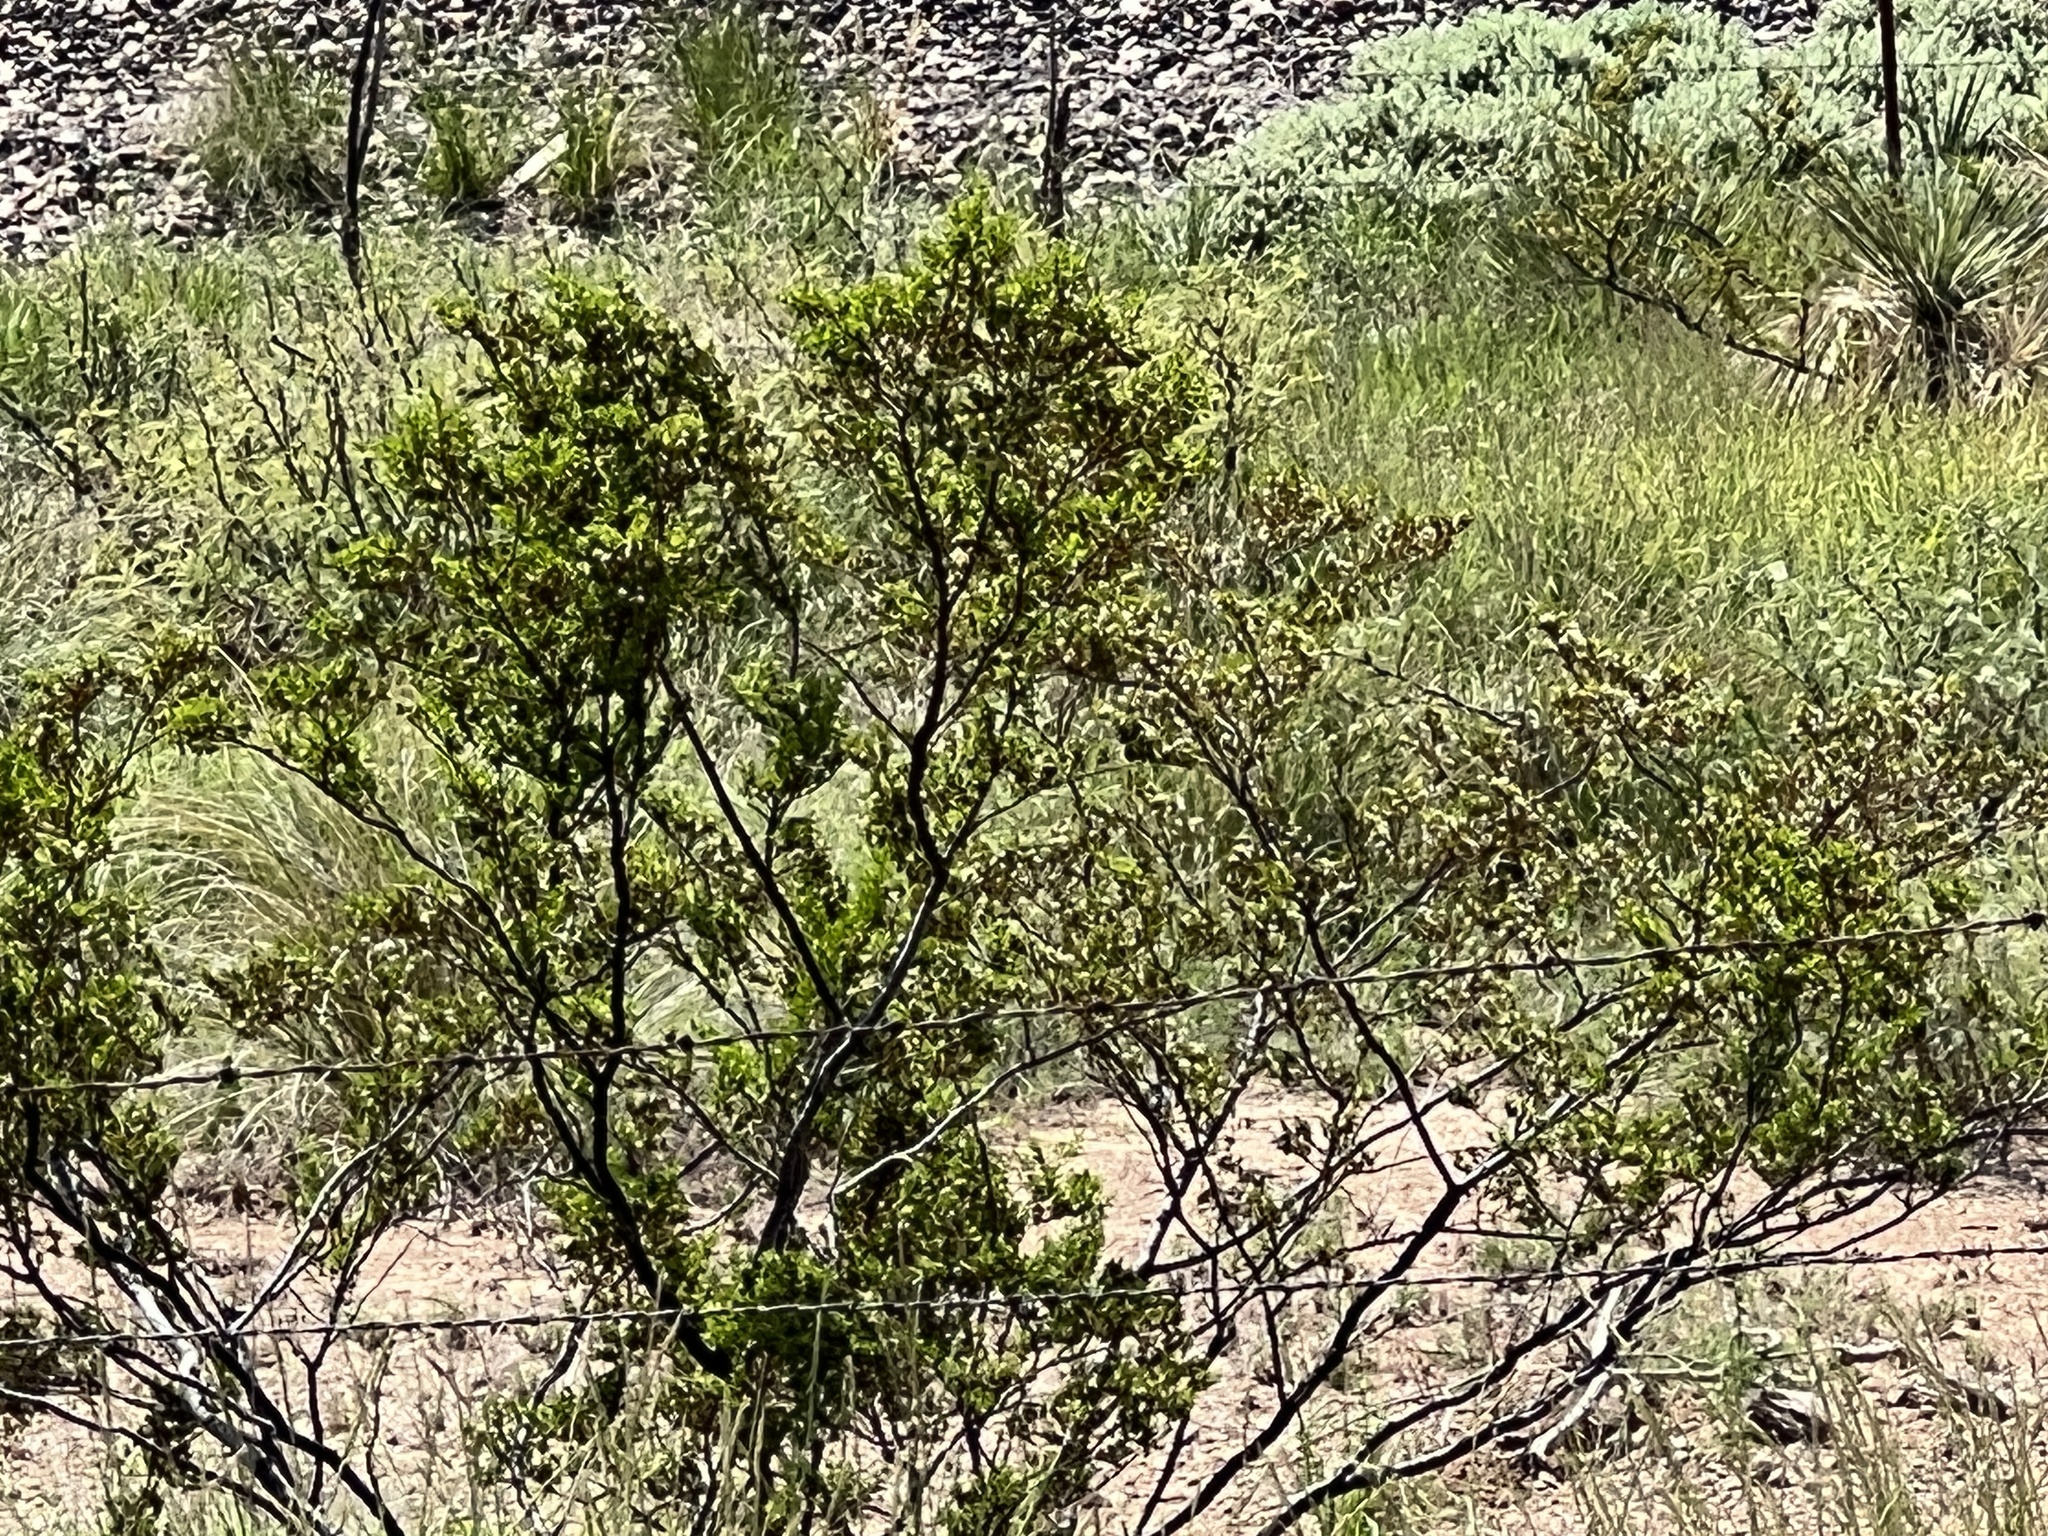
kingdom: Plantae
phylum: Tracheophyta
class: Magnoliopsida
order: Zygophyllales
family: Zygophyllaceae
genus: Larrea
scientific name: Larrea tridentata
